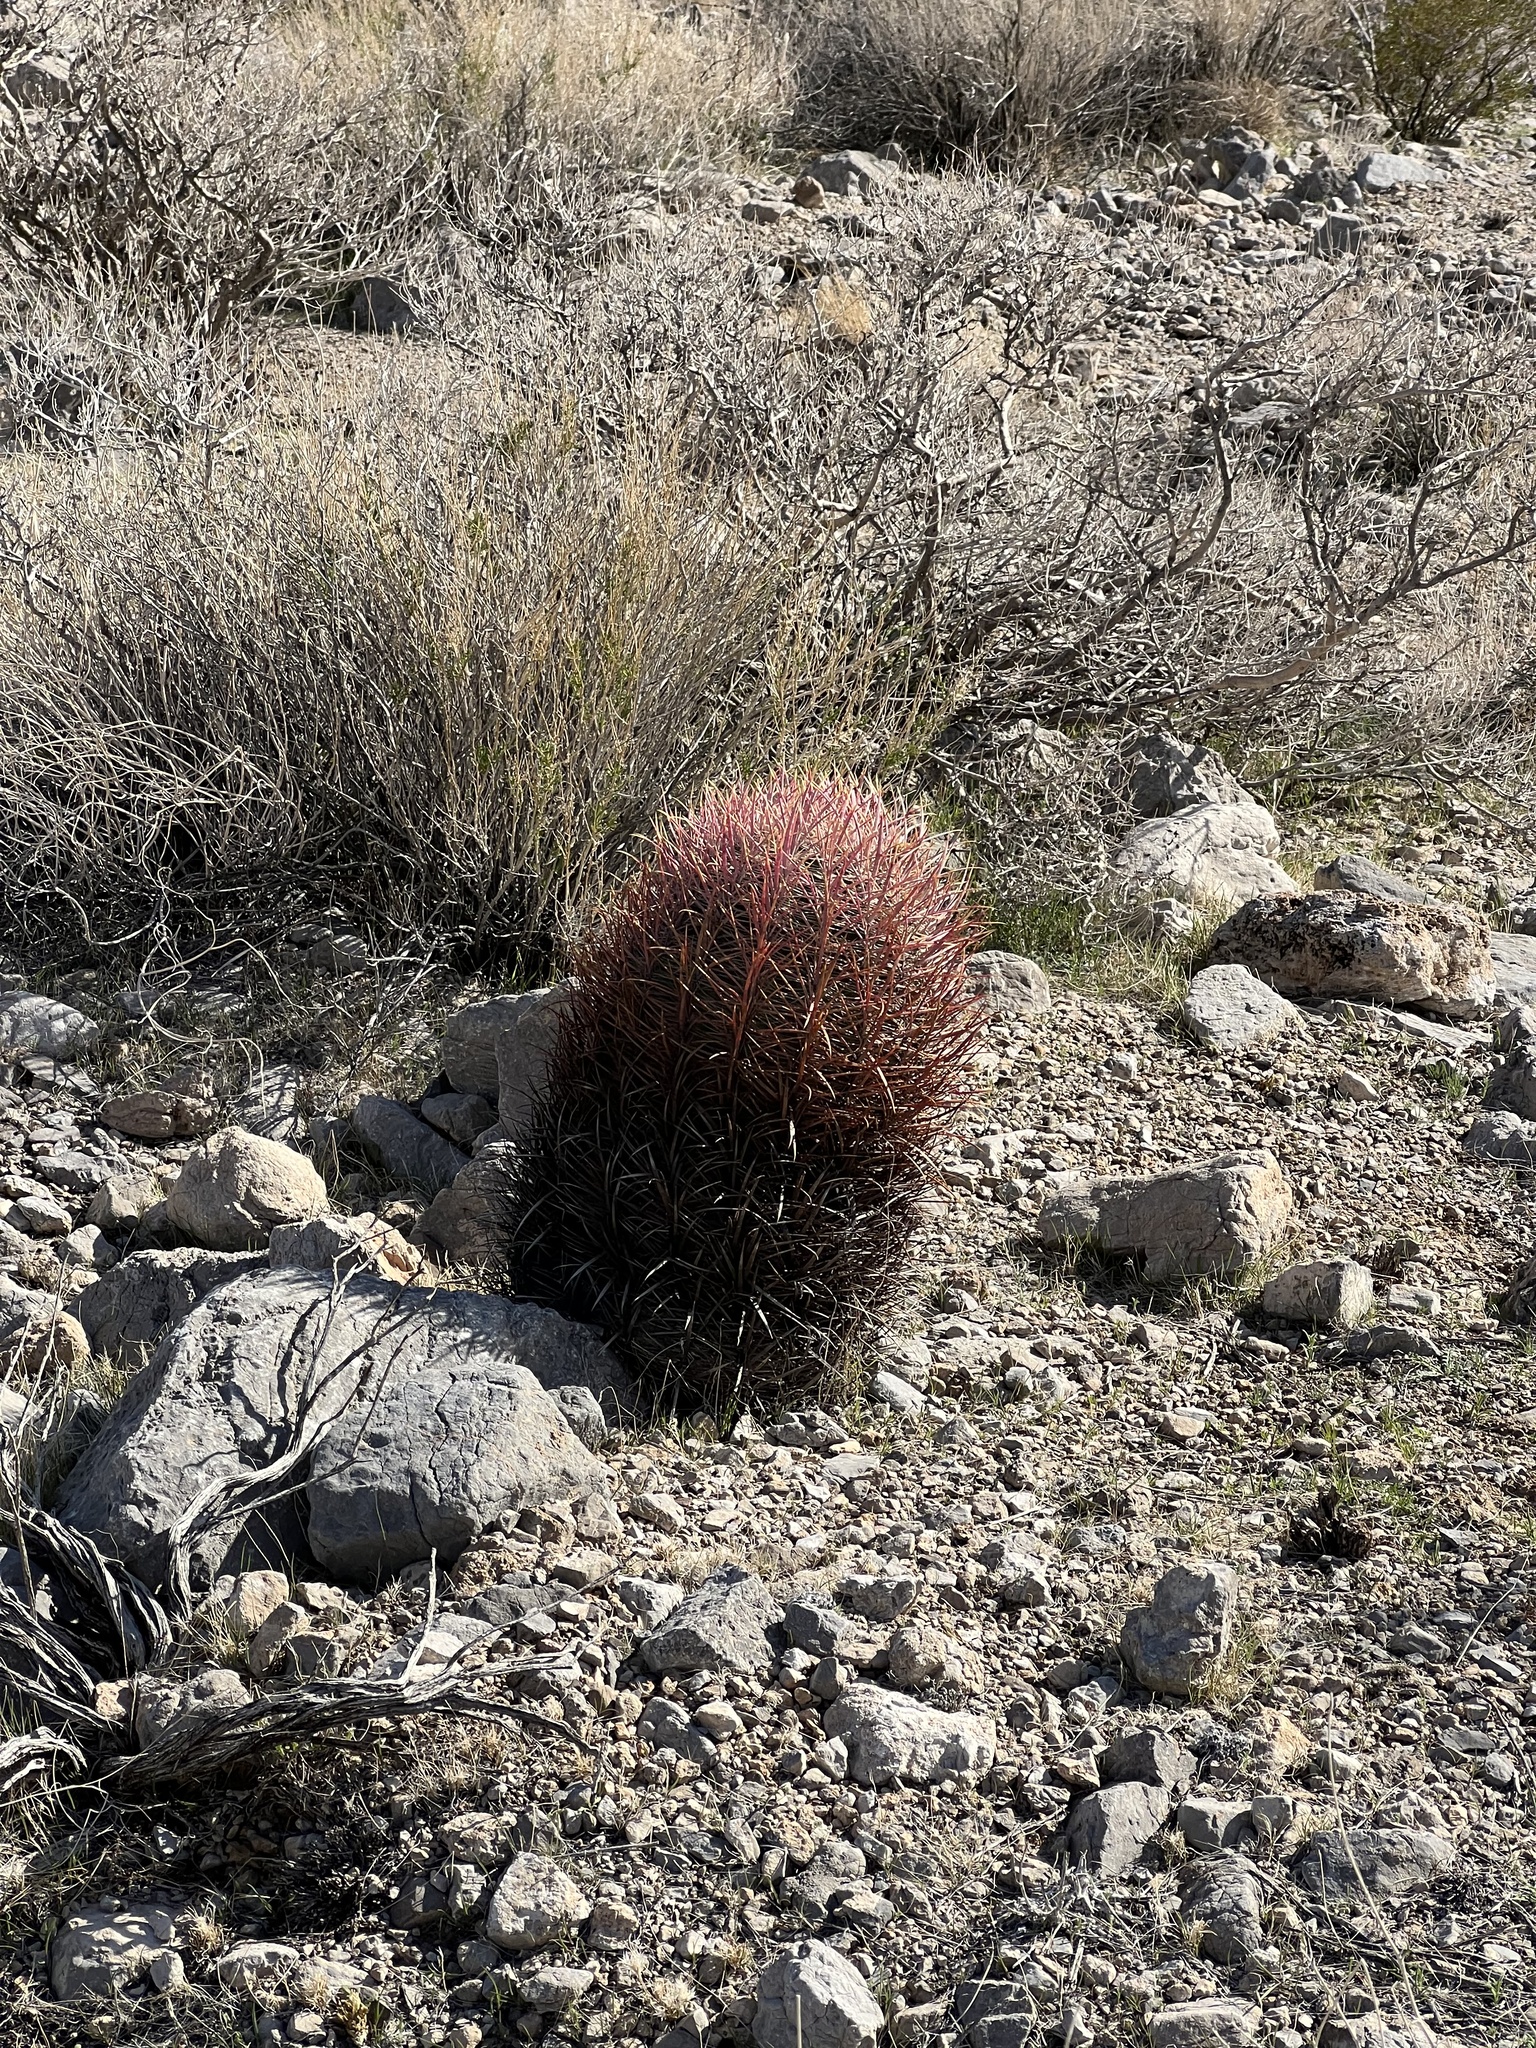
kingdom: Plantae
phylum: Tracheophyta
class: Magnoliopsida
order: Caryophyllales
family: Cactaceae
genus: Ferocactus
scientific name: Ferocactus cylindraceus
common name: California barrel cactus
